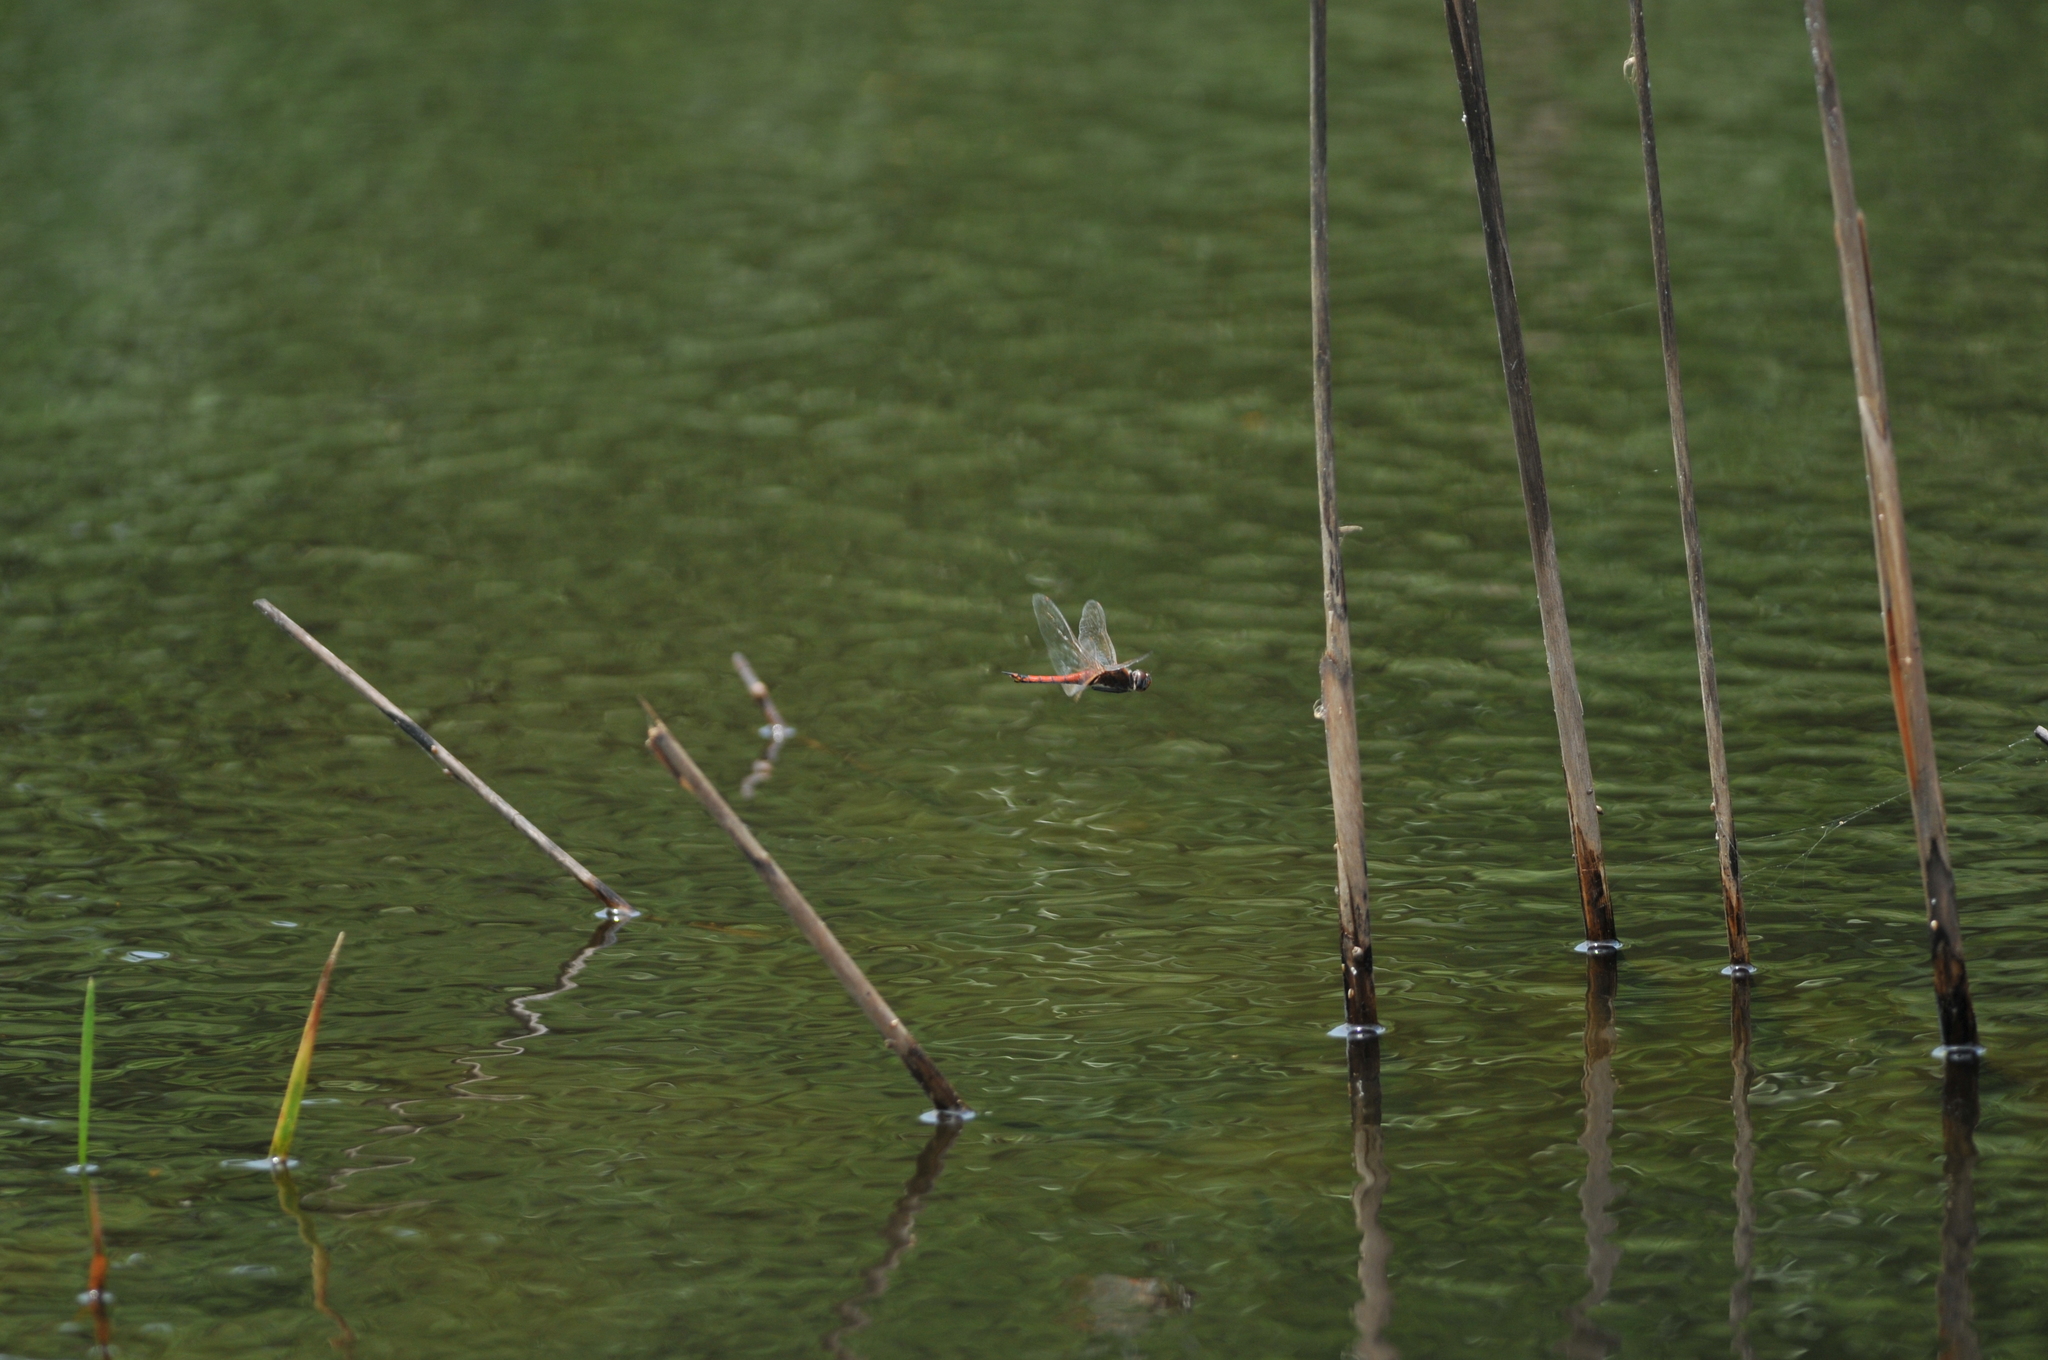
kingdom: Animalia
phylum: Arthropoda
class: Insecta
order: Odonata
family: Libellulidae
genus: Tramea
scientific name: Tramea transmarina
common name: Red glider dragonfly
